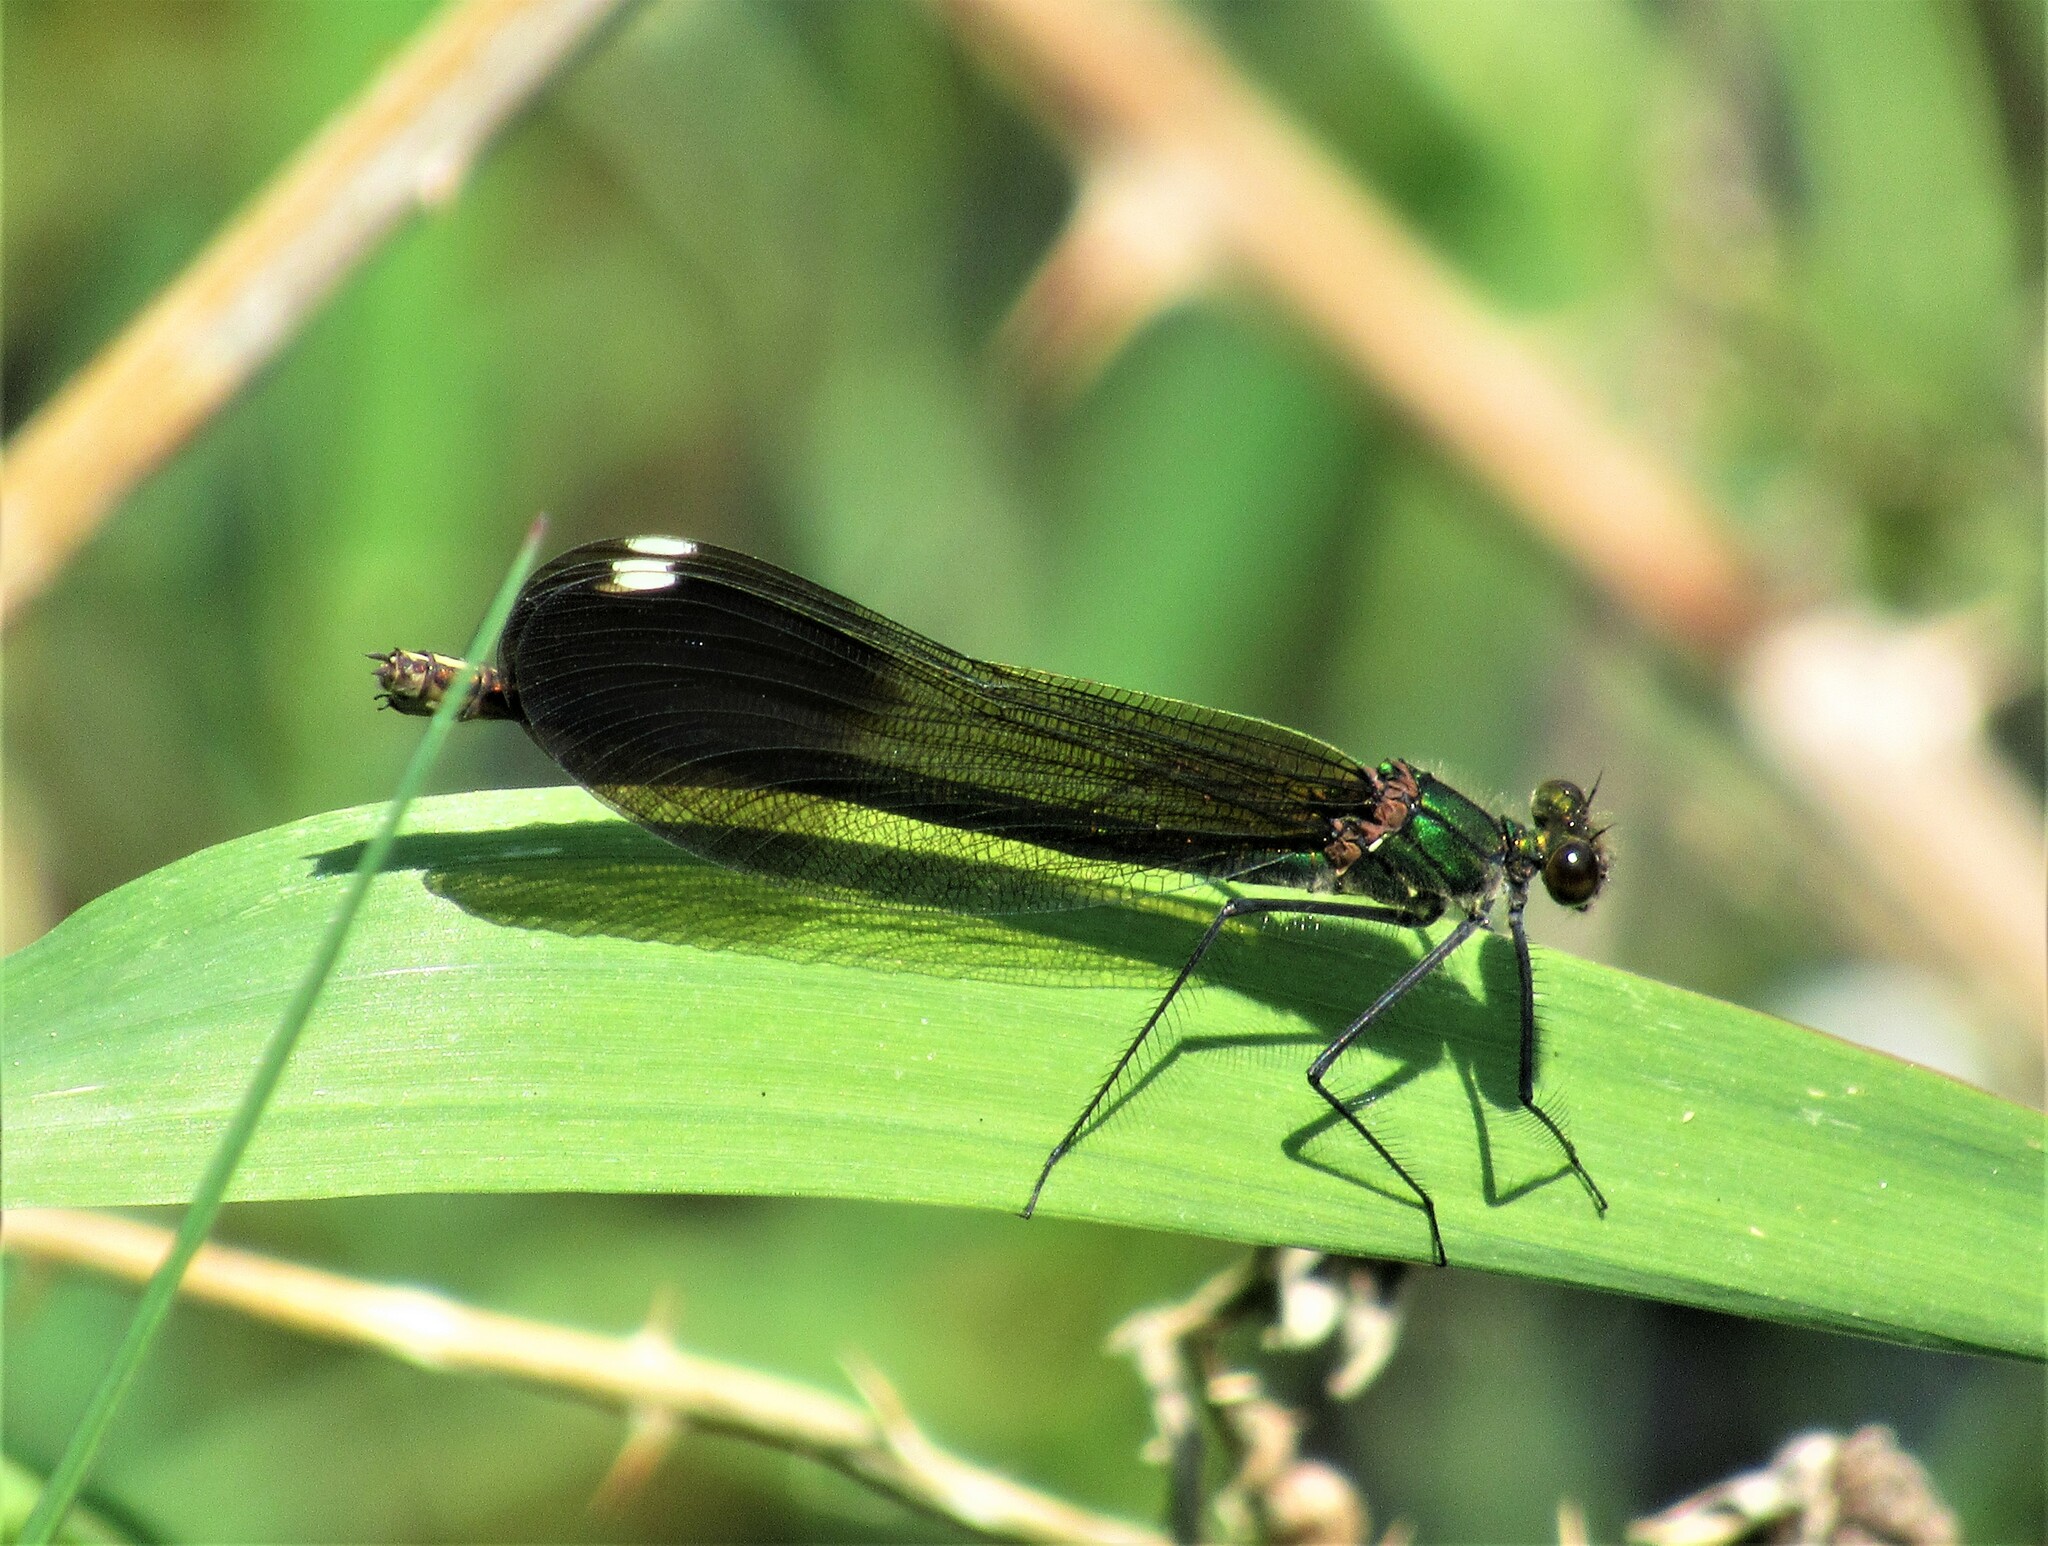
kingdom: Animalia
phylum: Arthropoda
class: Insecta
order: Odonata
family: Calopterygidae
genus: Calopteryx
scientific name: Calopteryx aequabilis
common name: River jewelwing
